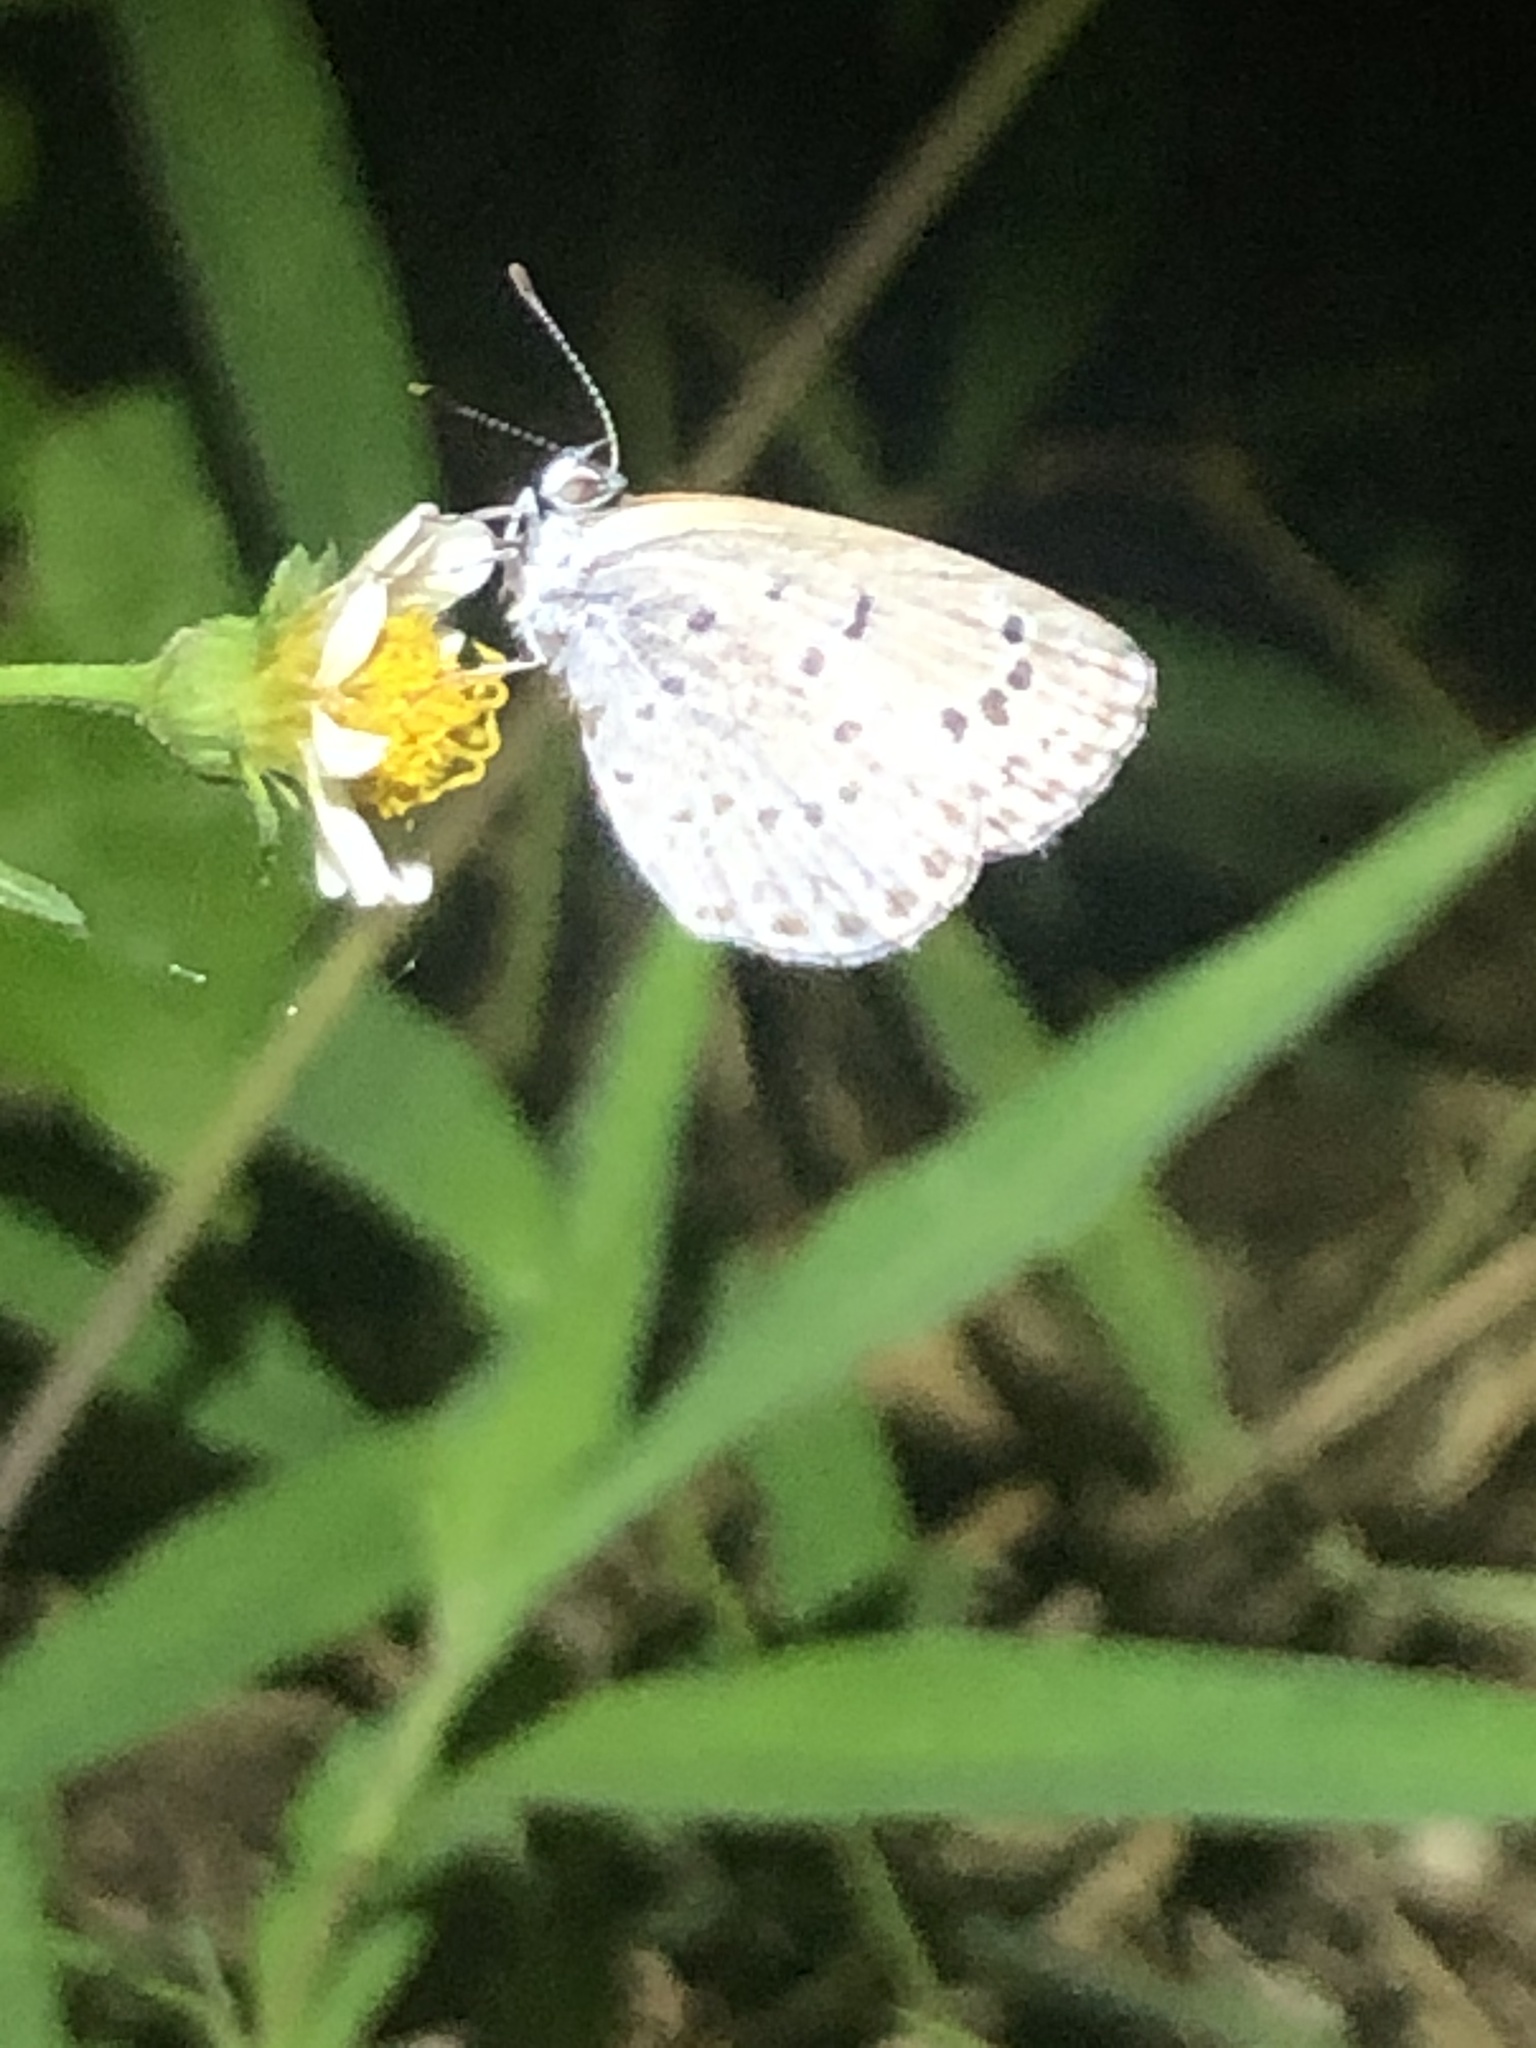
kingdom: Animalia
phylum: Arthropoda
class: Insecta
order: Lepidoptera
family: Lycaenidae
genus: Pseudozizeeria
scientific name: Pseudozizeeria maha
